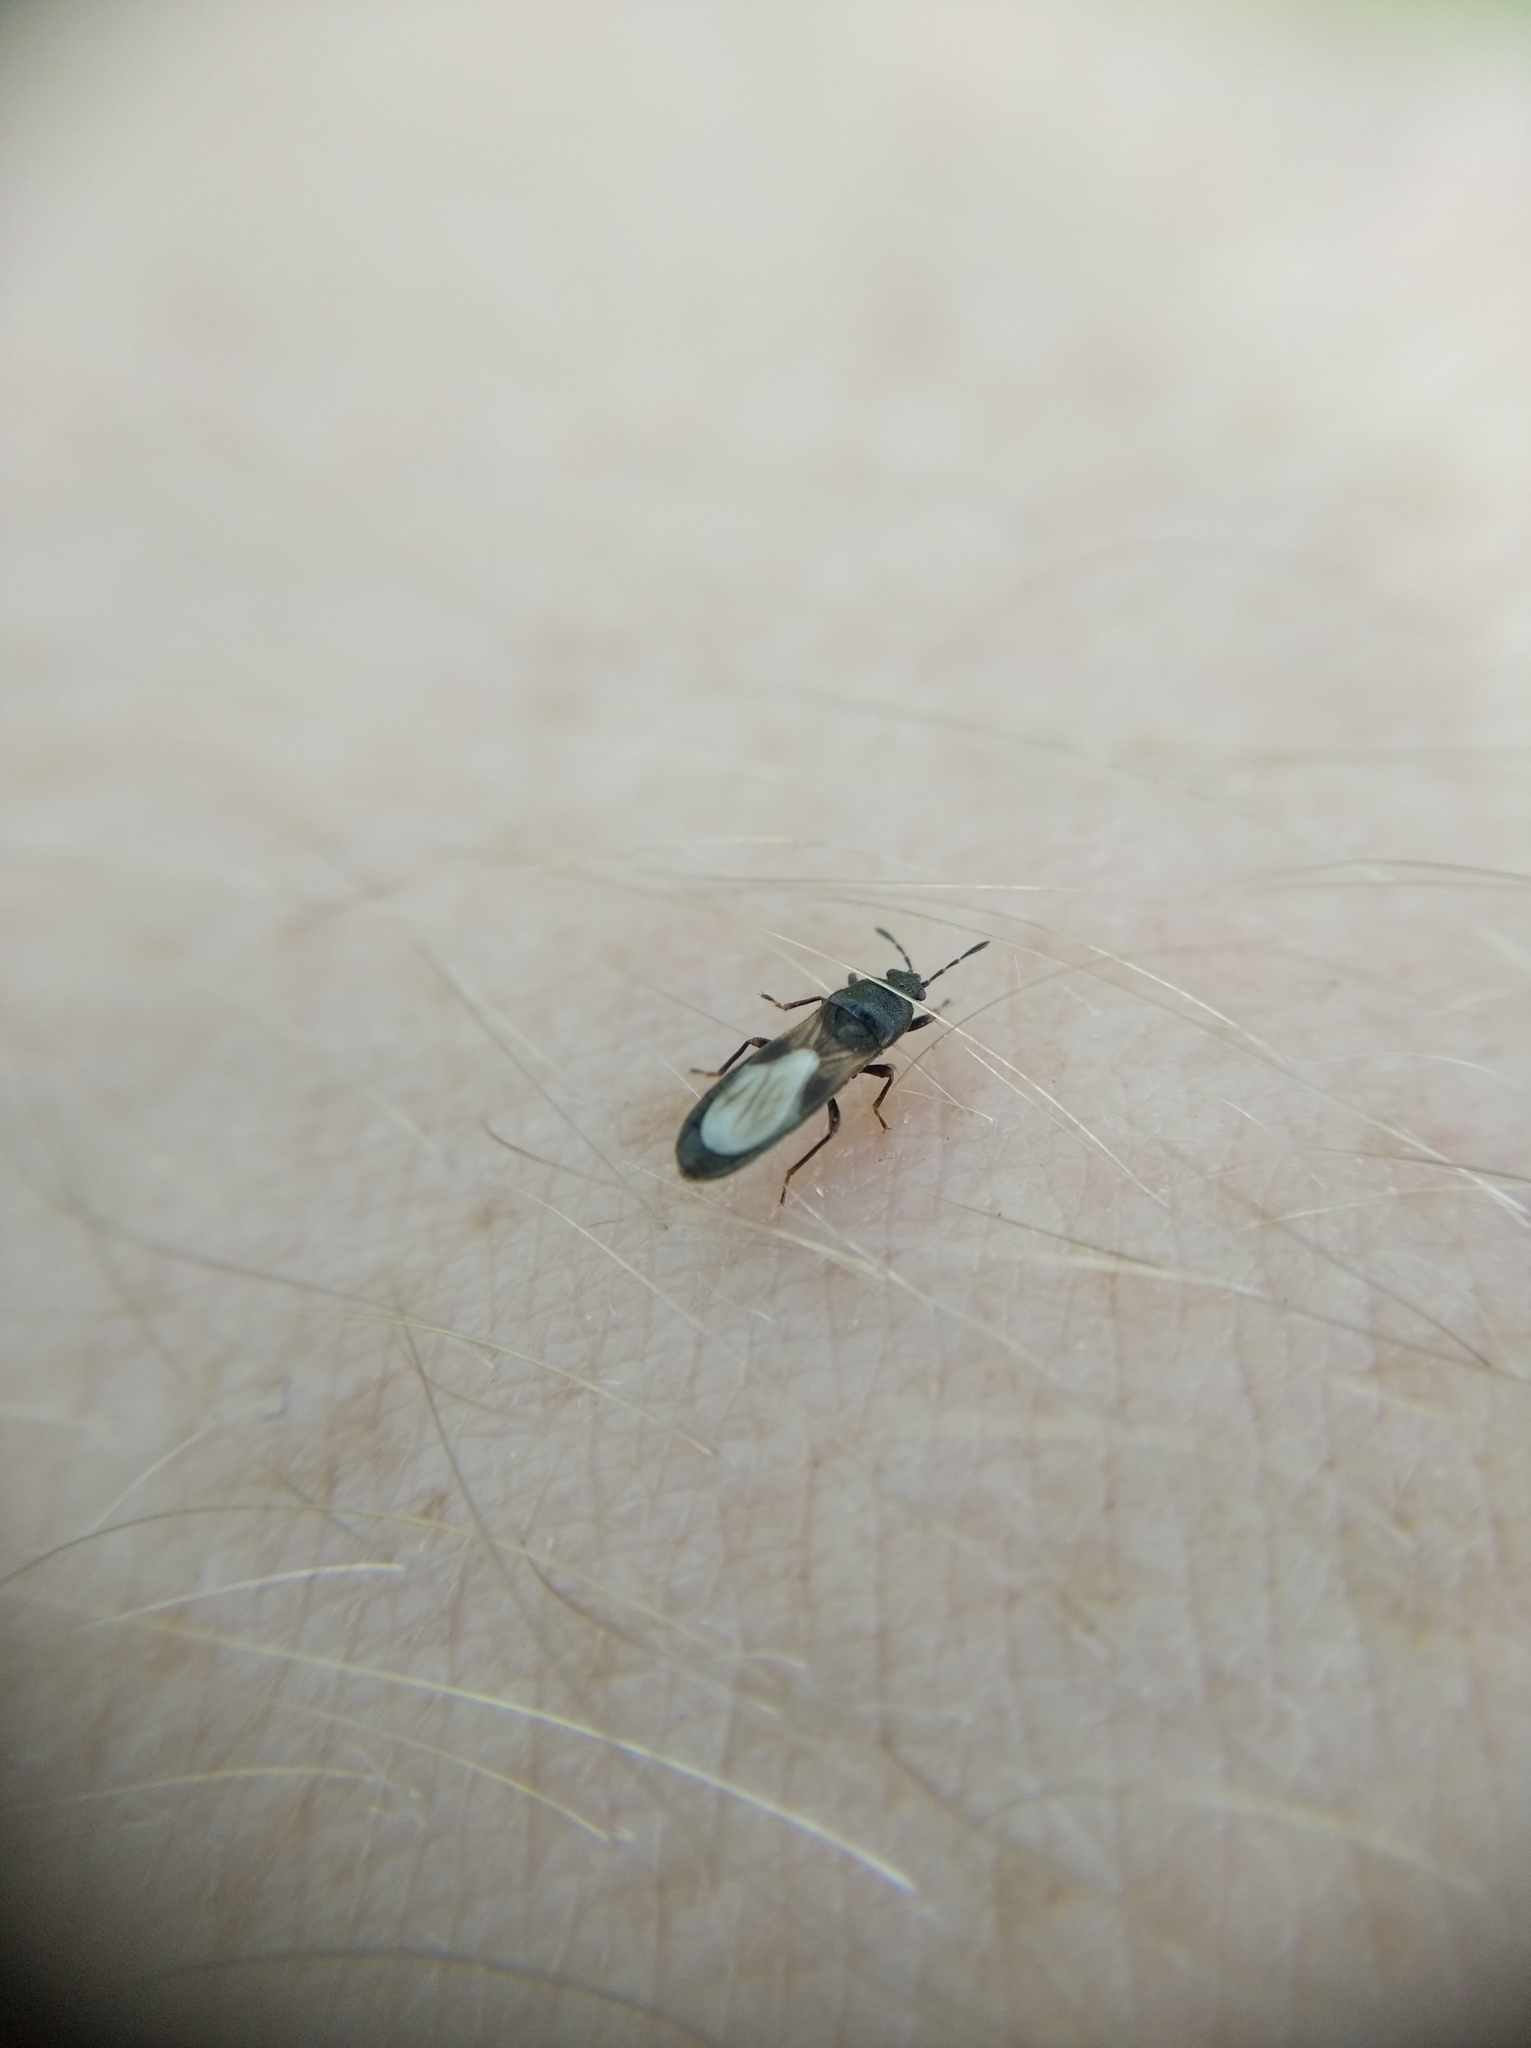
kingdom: Animalia
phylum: Arthropoda
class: Insecta
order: Hemiptera
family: Blissidae
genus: Dimorphopterus
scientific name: Dimorphopterus spinolae
